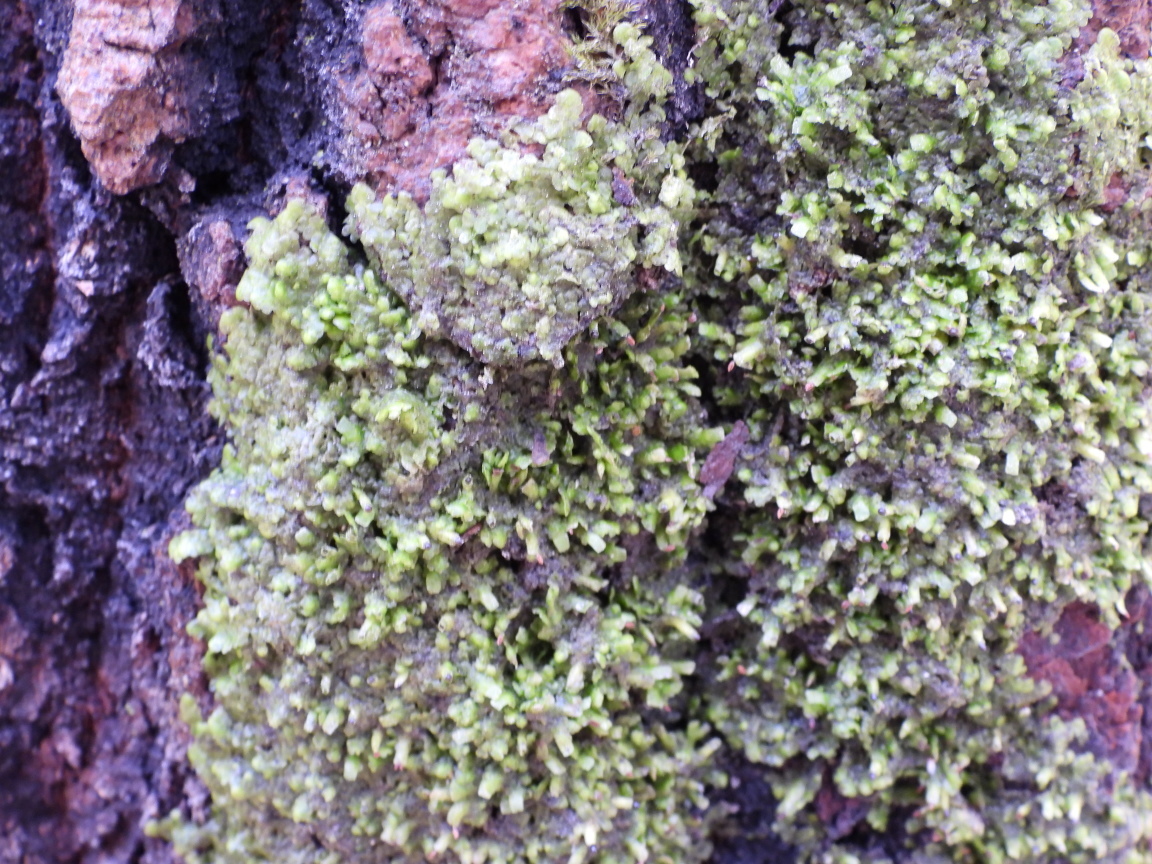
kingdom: Plantae
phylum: Marchantiophyta
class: Jungermanniopsida
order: Porellales
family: Radulaceae
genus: Radula
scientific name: Radula complanata
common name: Flat-leaved scalewort
